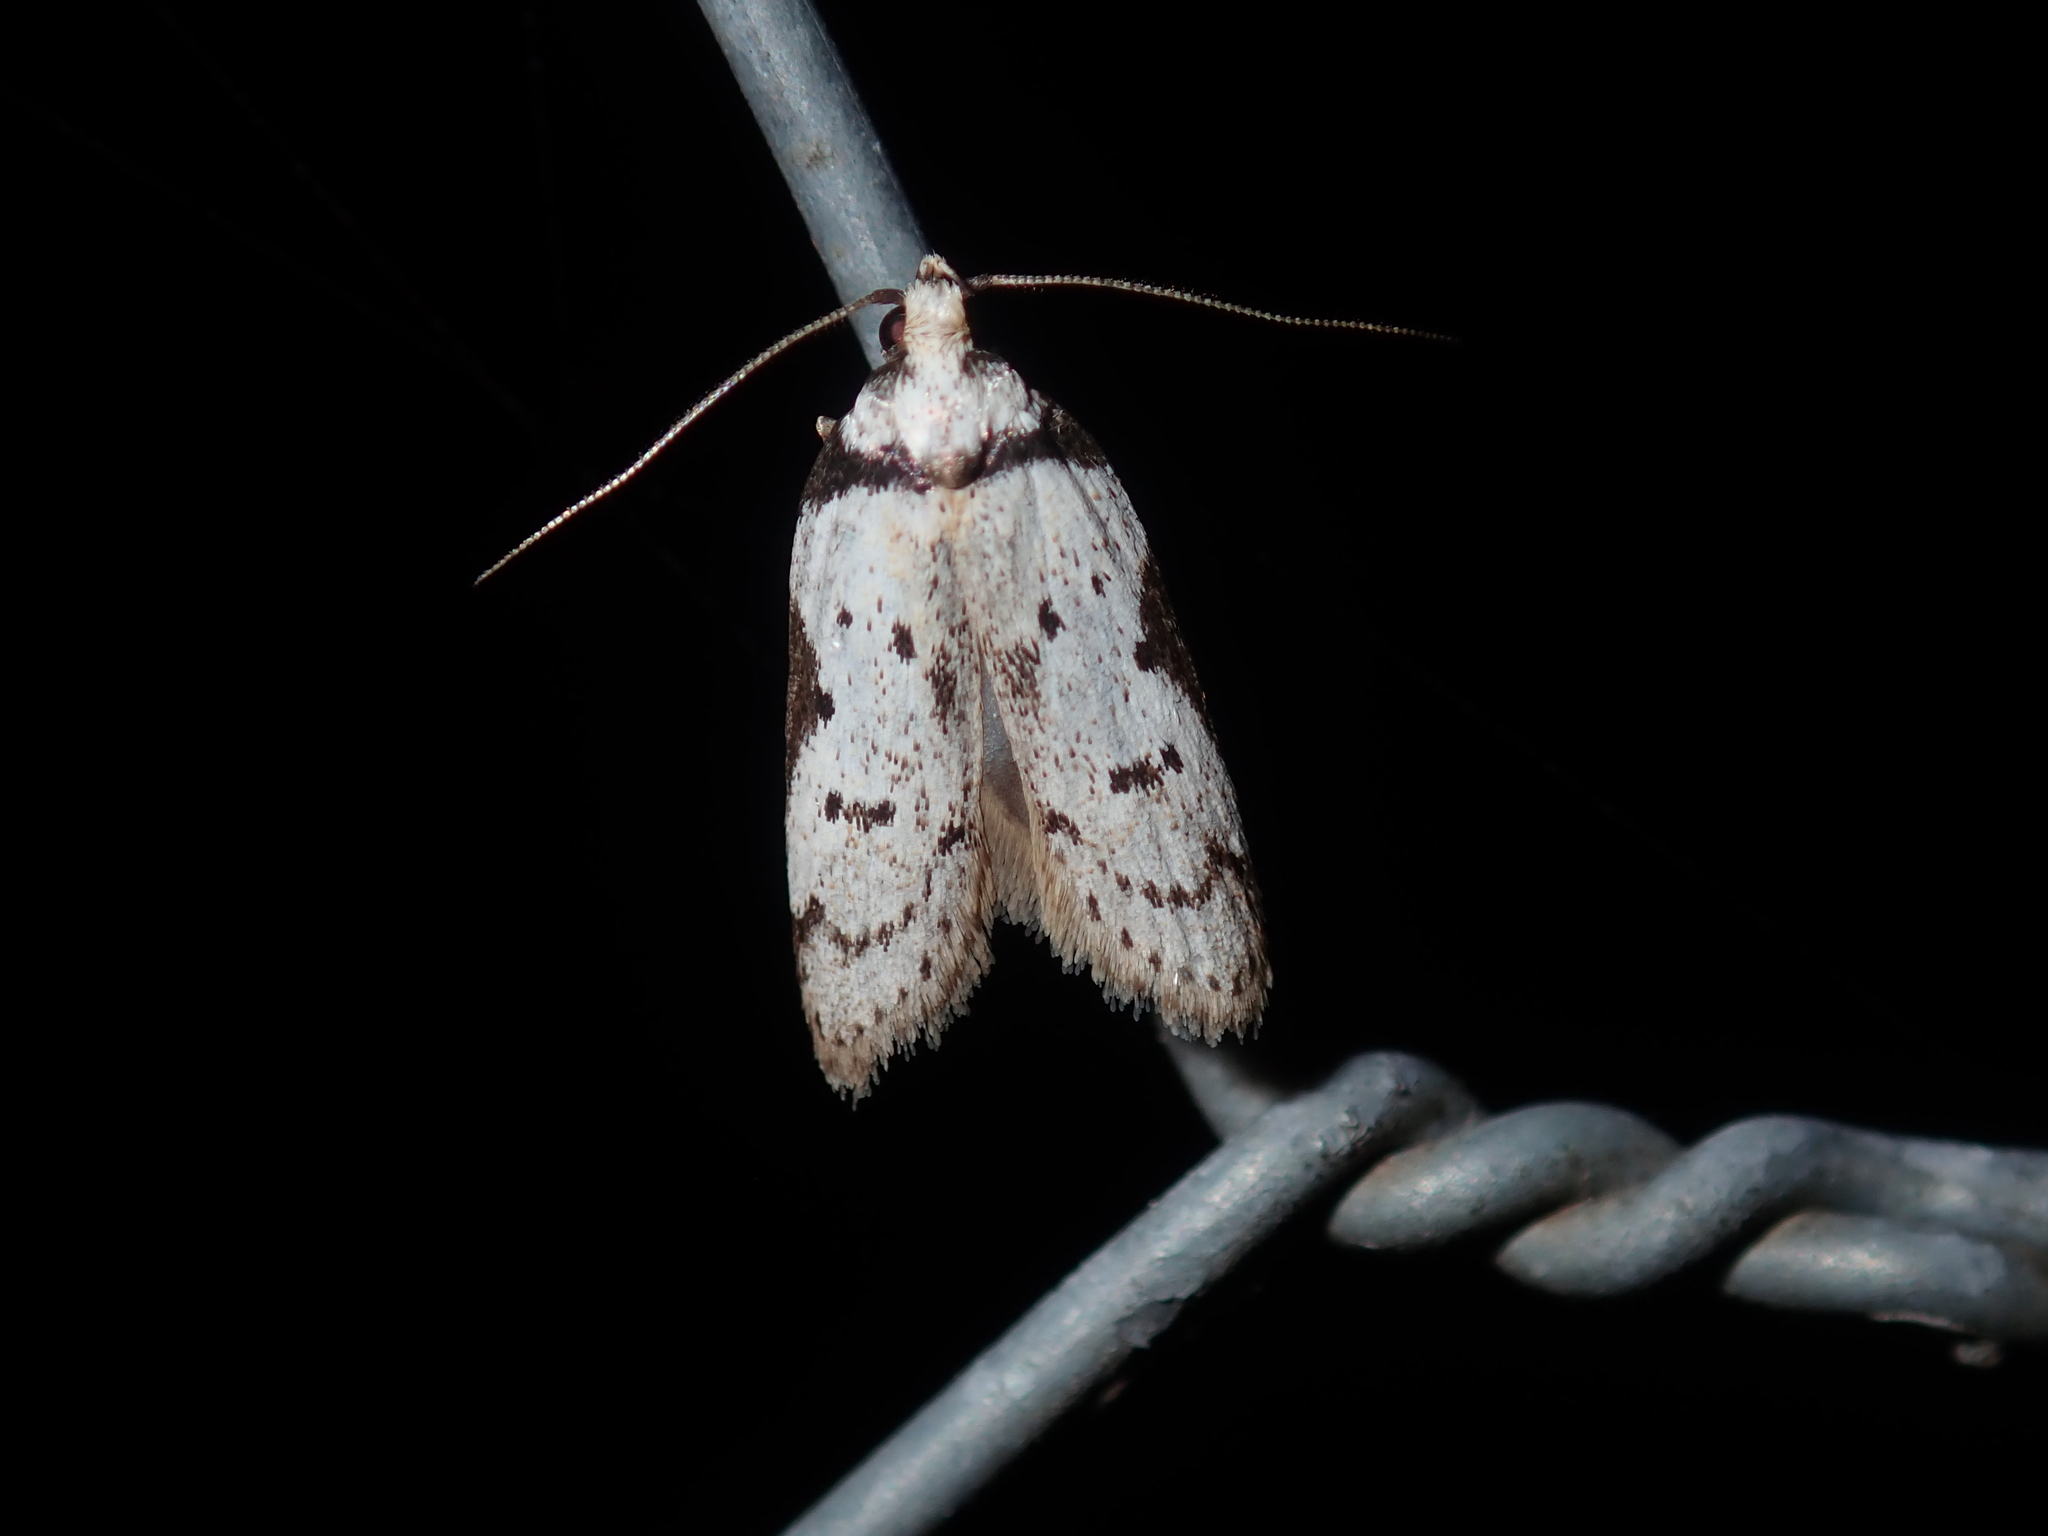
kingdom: Animalia
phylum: Arthropoda
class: Insecta
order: Lepidoptera
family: Oecophoridae
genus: Philobota
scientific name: Philobota transversella
